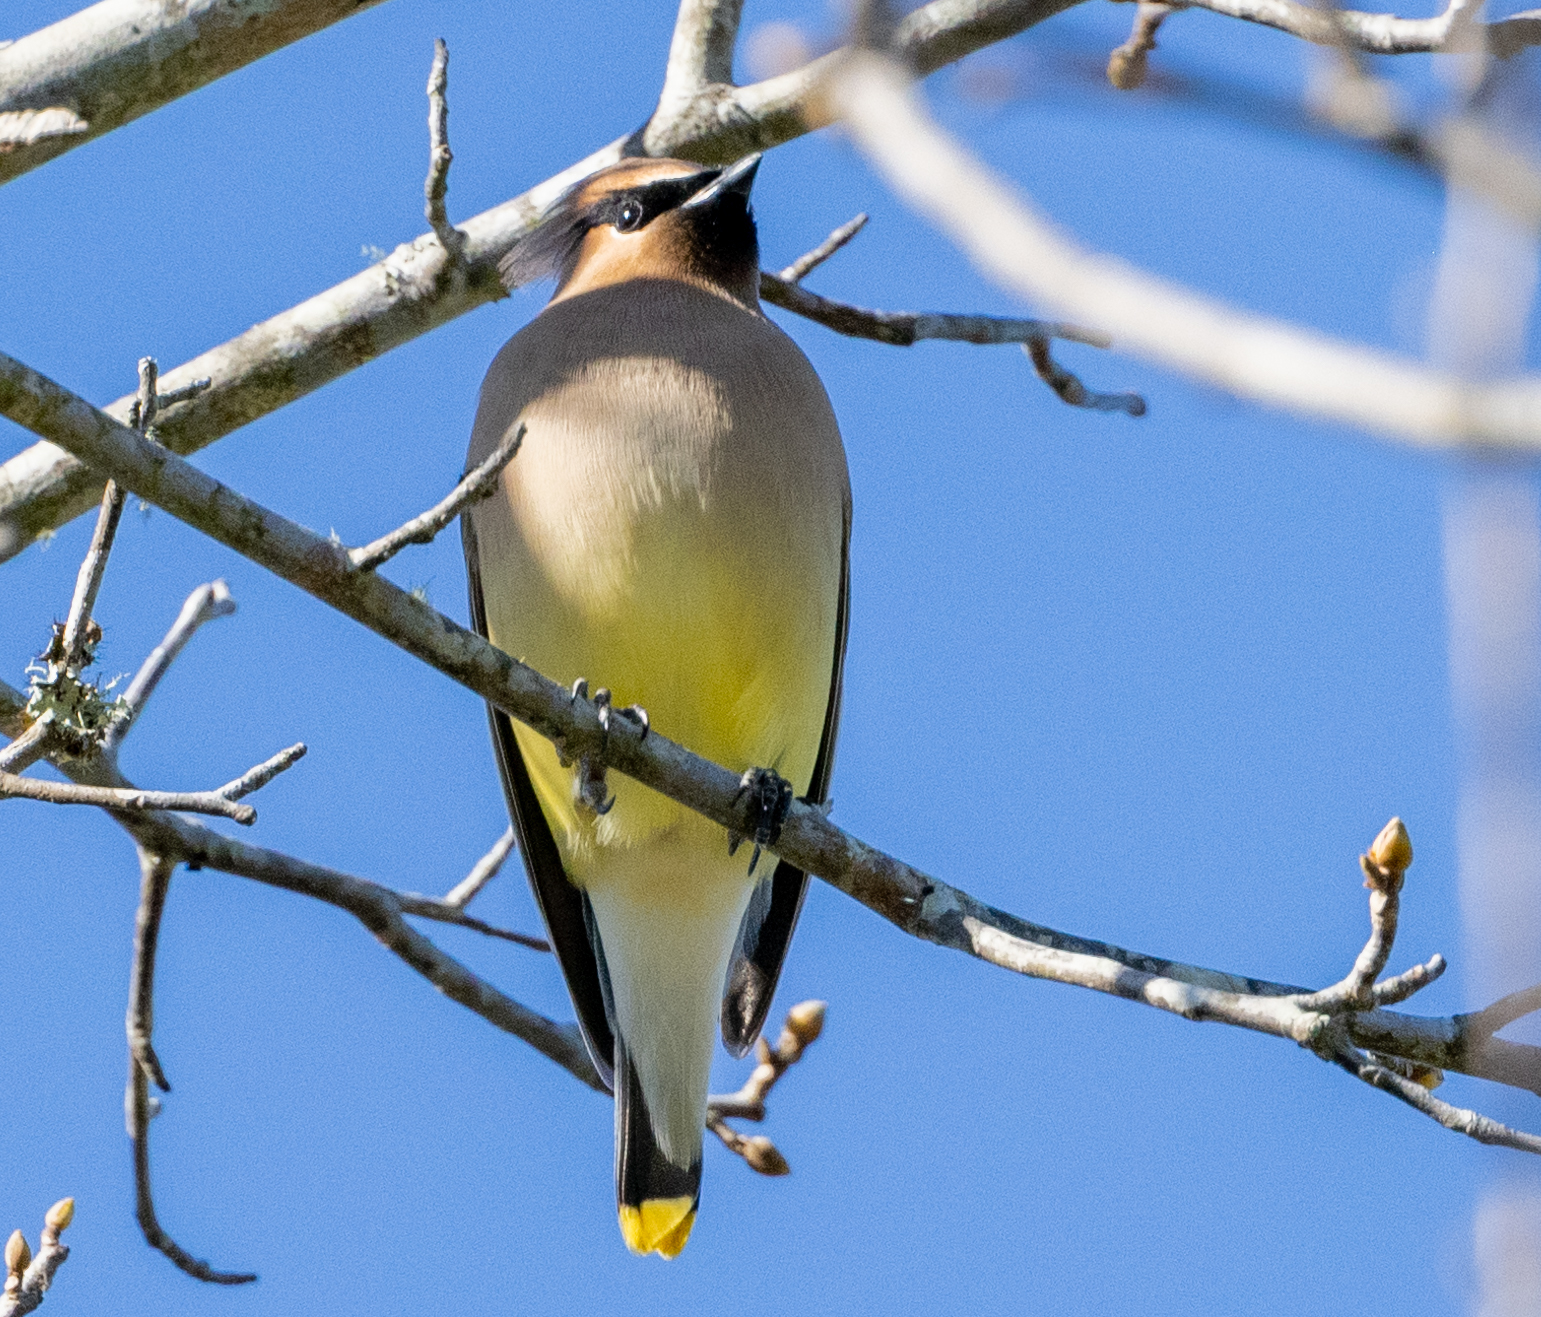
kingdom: Animalia
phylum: Chordata
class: Aves
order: Passeriformes
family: Bombycillidae
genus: Bombycilla
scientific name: Bombycilla cedrorum
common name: Cedar waxwing
